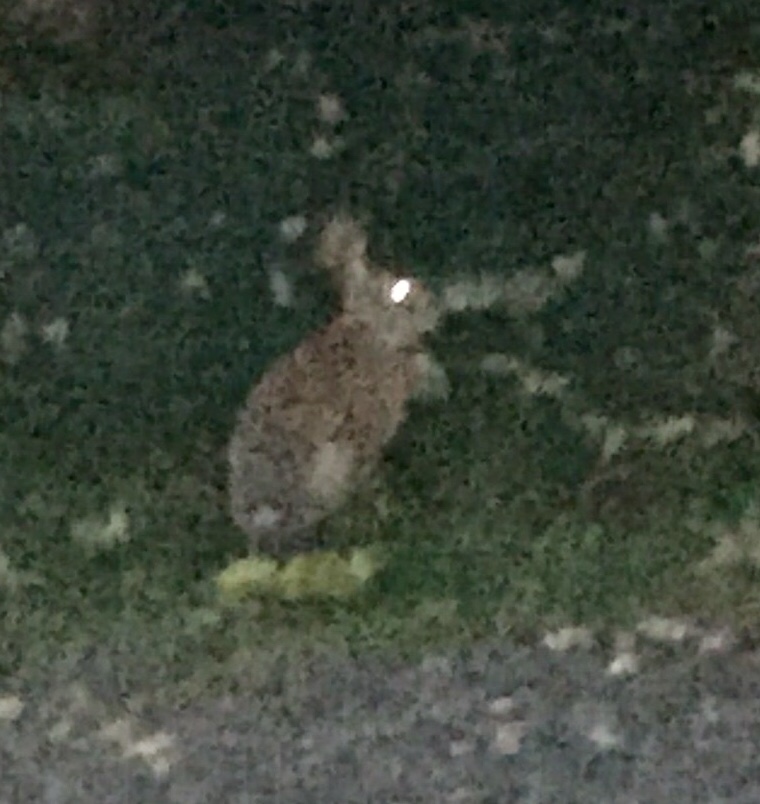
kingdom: Animalia
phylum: Chordata
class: Mammalia
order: Lagomorpha
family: Leporidae
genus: Sylvilagus
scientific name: Sylvilagus floridanus
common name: Eastern cottontail
